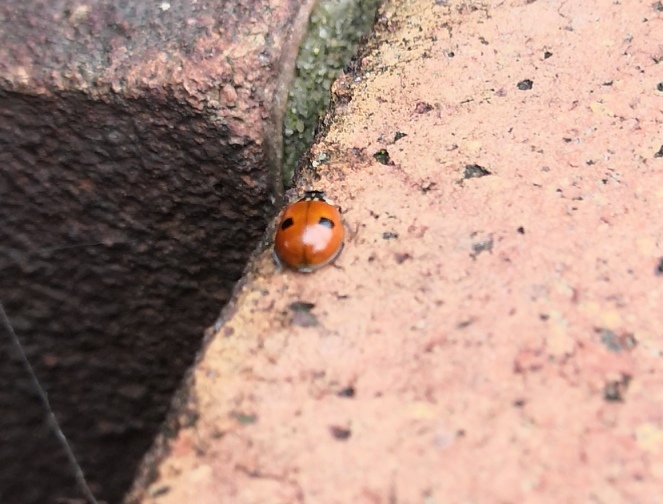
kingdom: Animalia
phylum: Arthropoda
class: Insecta
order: Coleoptera
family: Coccinellidae
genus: Adalia
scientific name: Adalia bipunctata
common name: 2-spot ladybird
